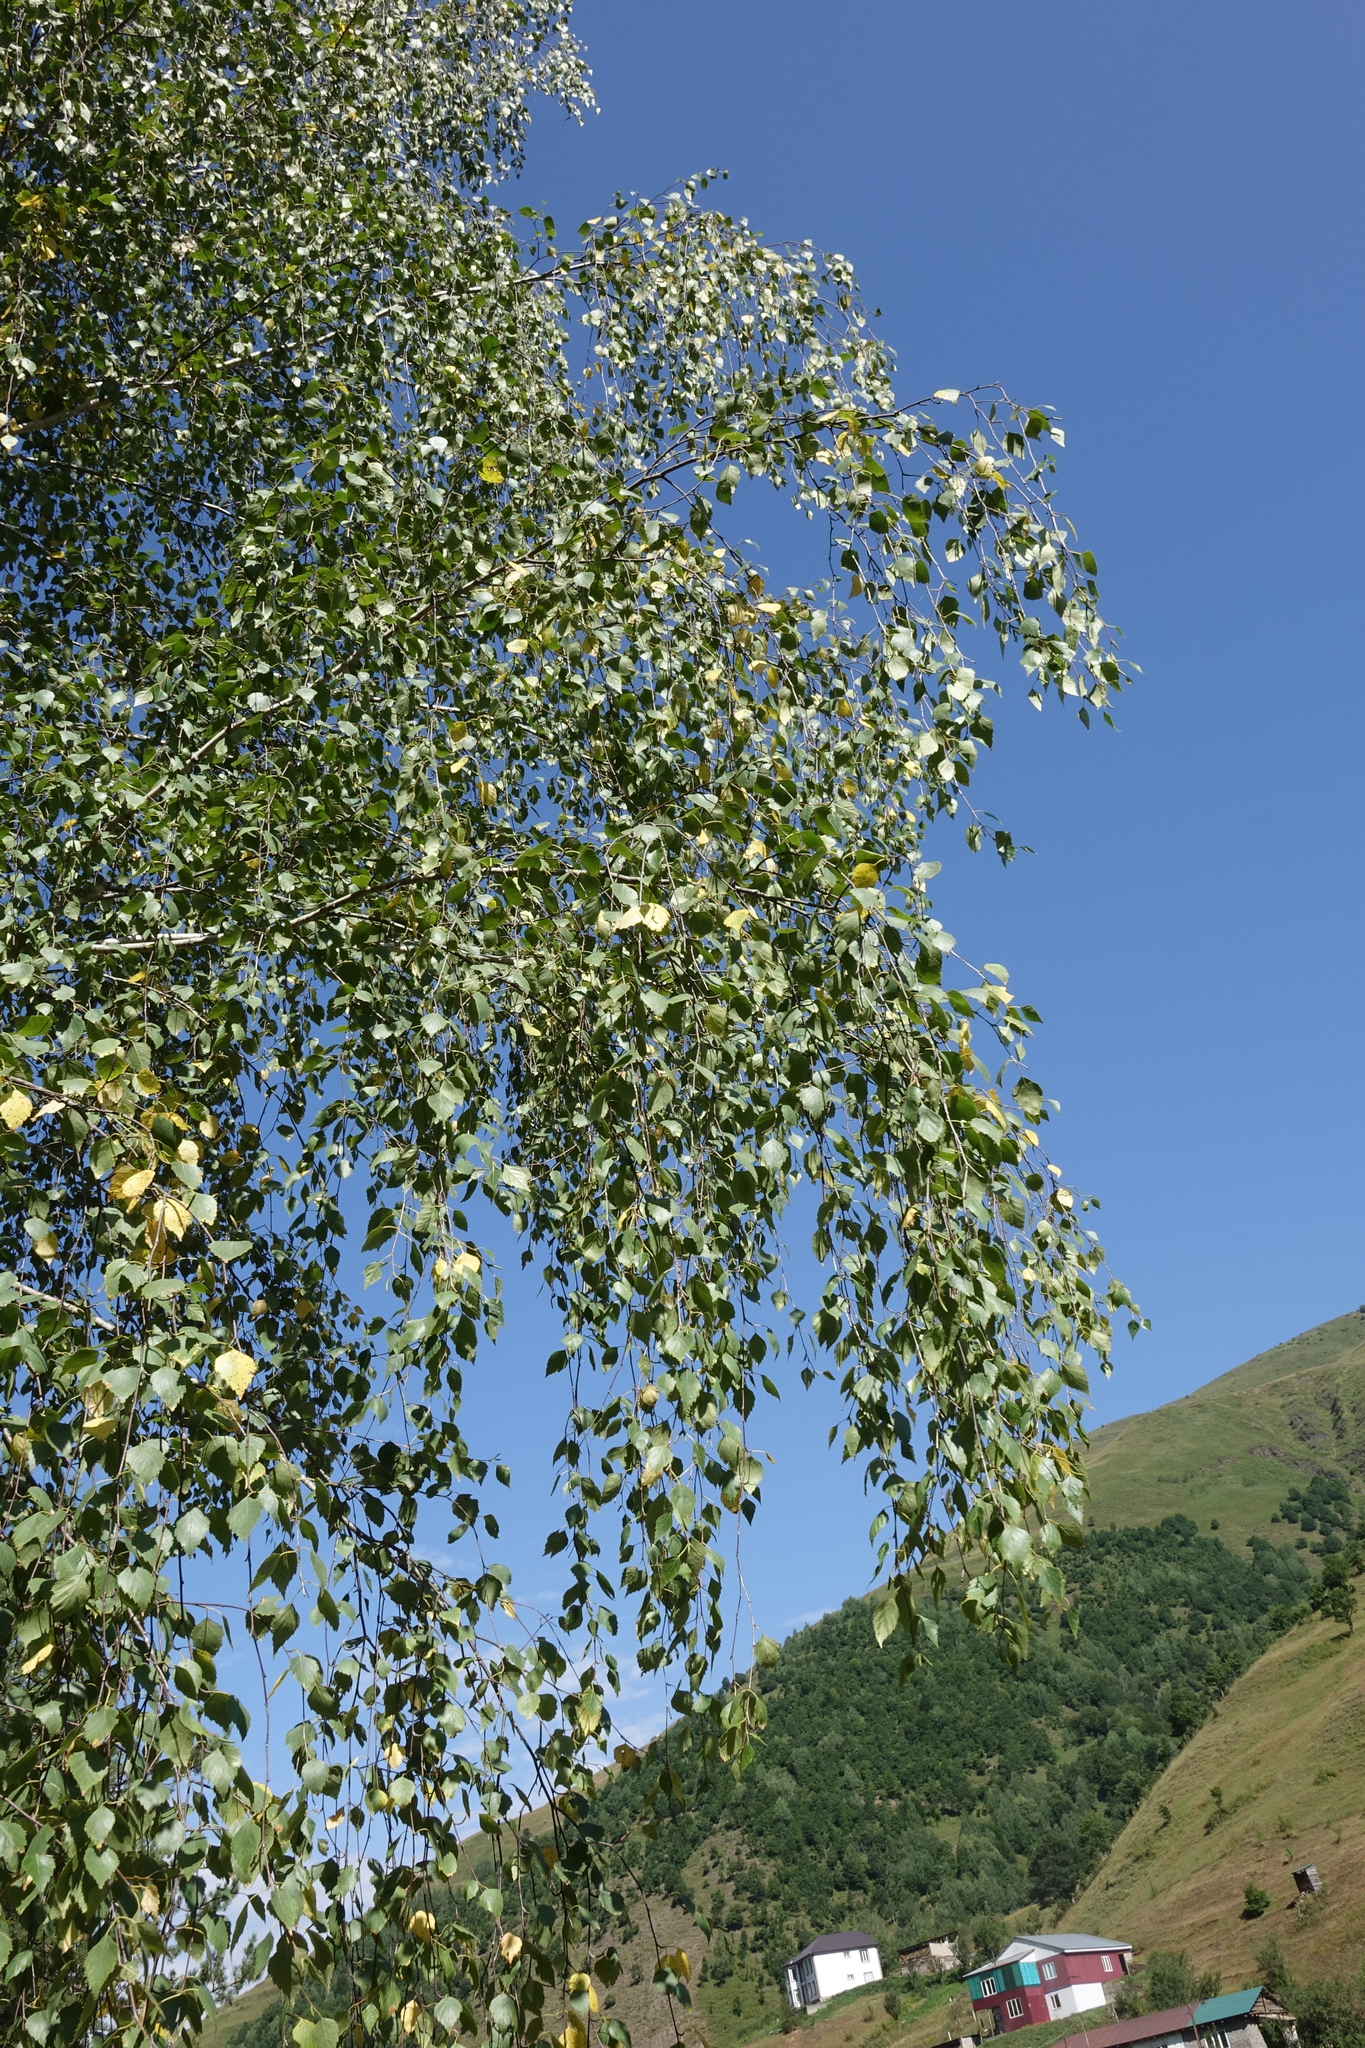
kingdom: Plantae
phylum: Tracheophyta
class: Magnoliopsida
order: Fagales
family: Betulaceae
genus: Betula
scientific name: Betula pendula
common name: Silver birch
